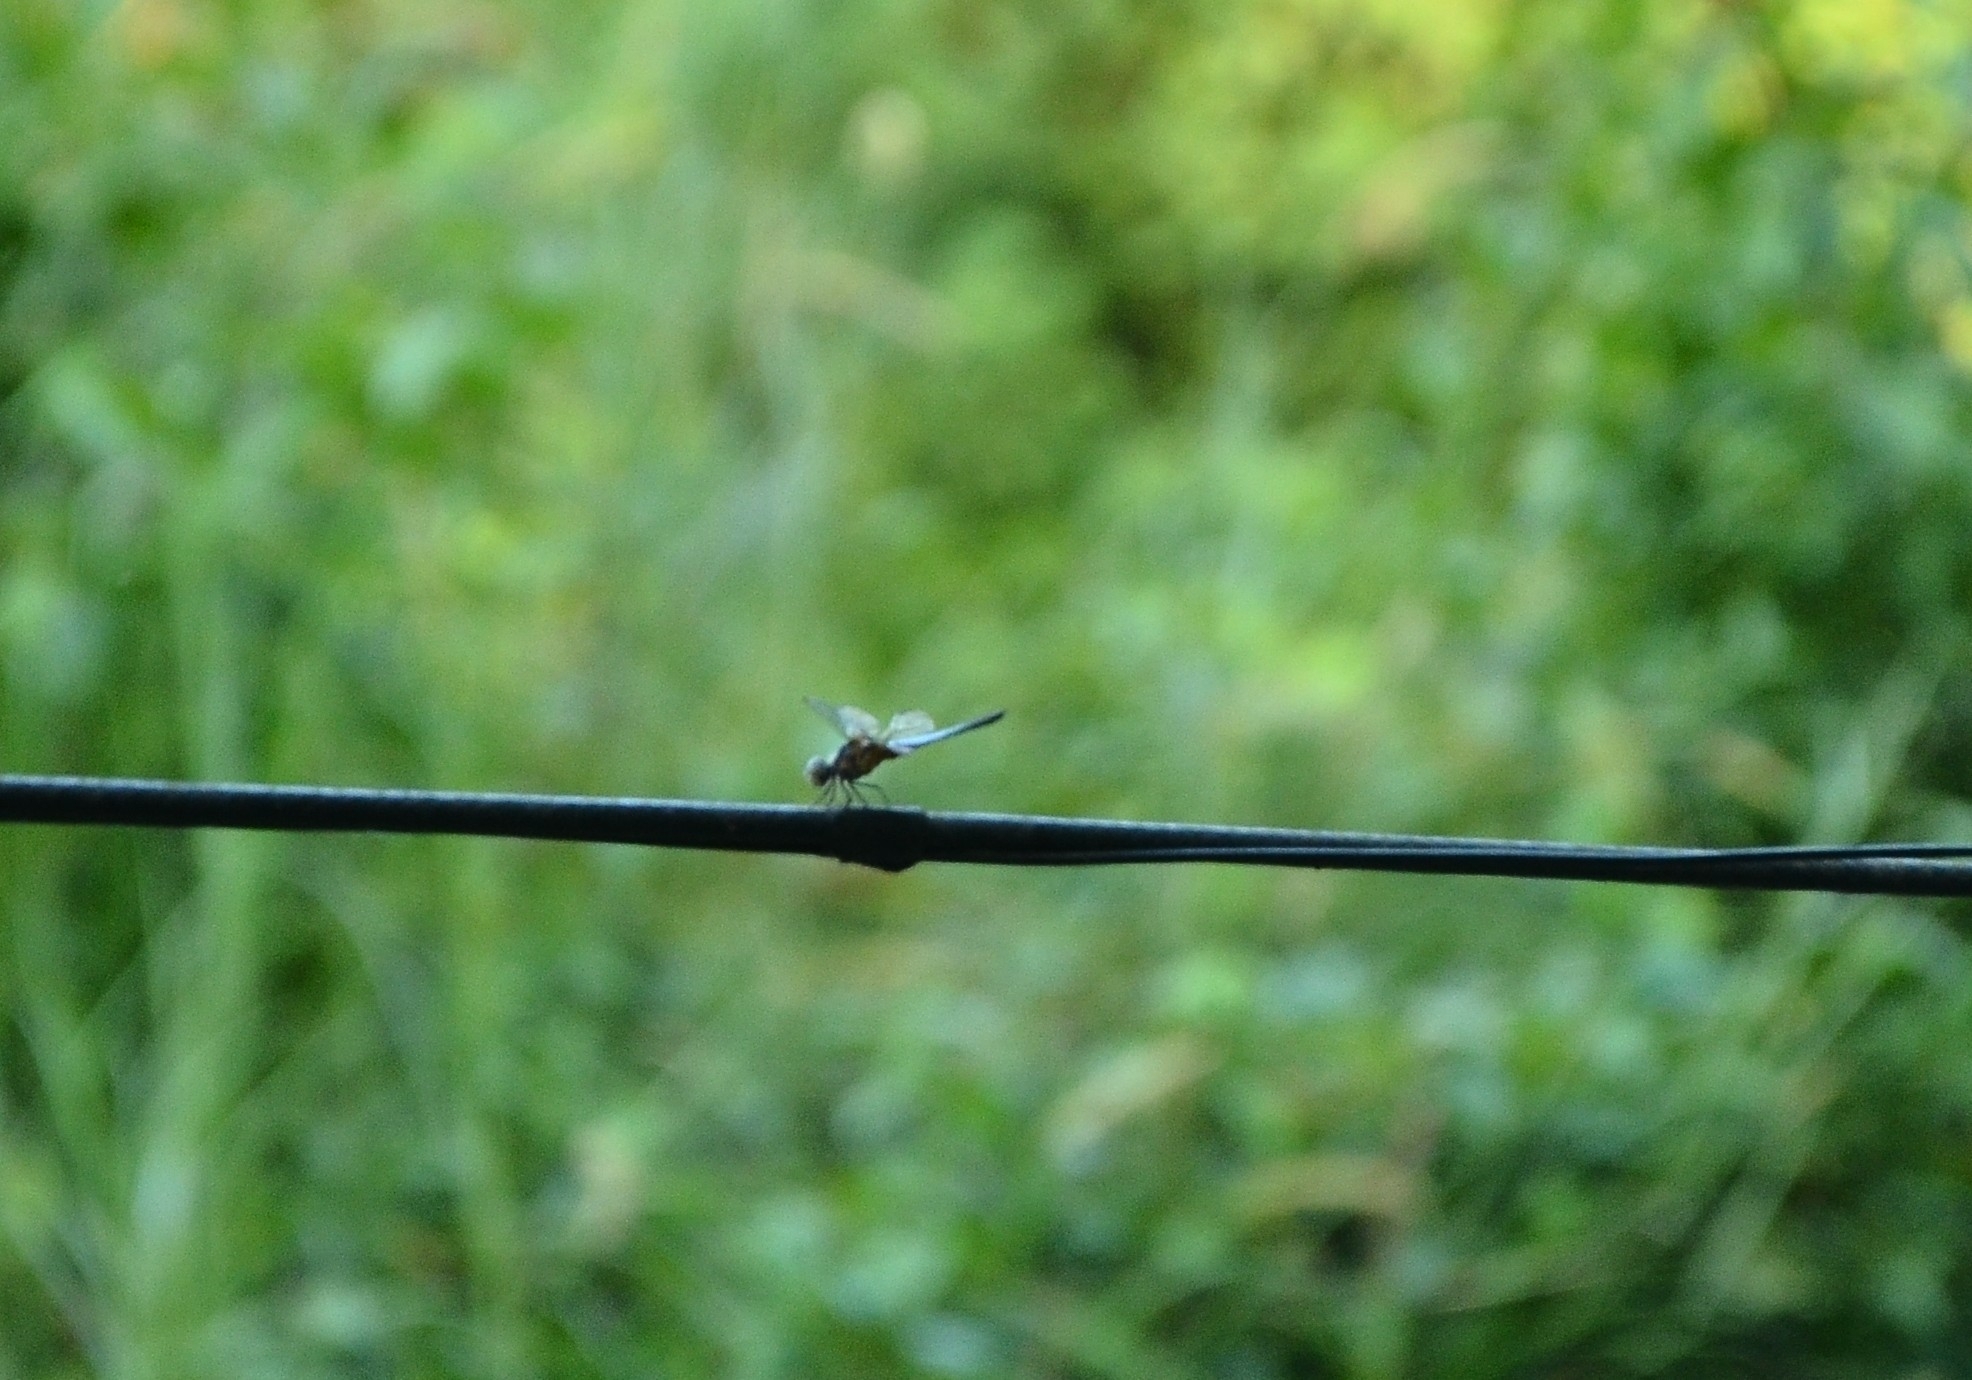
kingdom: Animalia
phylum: Arthropoda
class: Insecta
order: Odonata
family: Libellulidae
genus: Brachydiplax
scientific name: Brachydiplax chalybea
